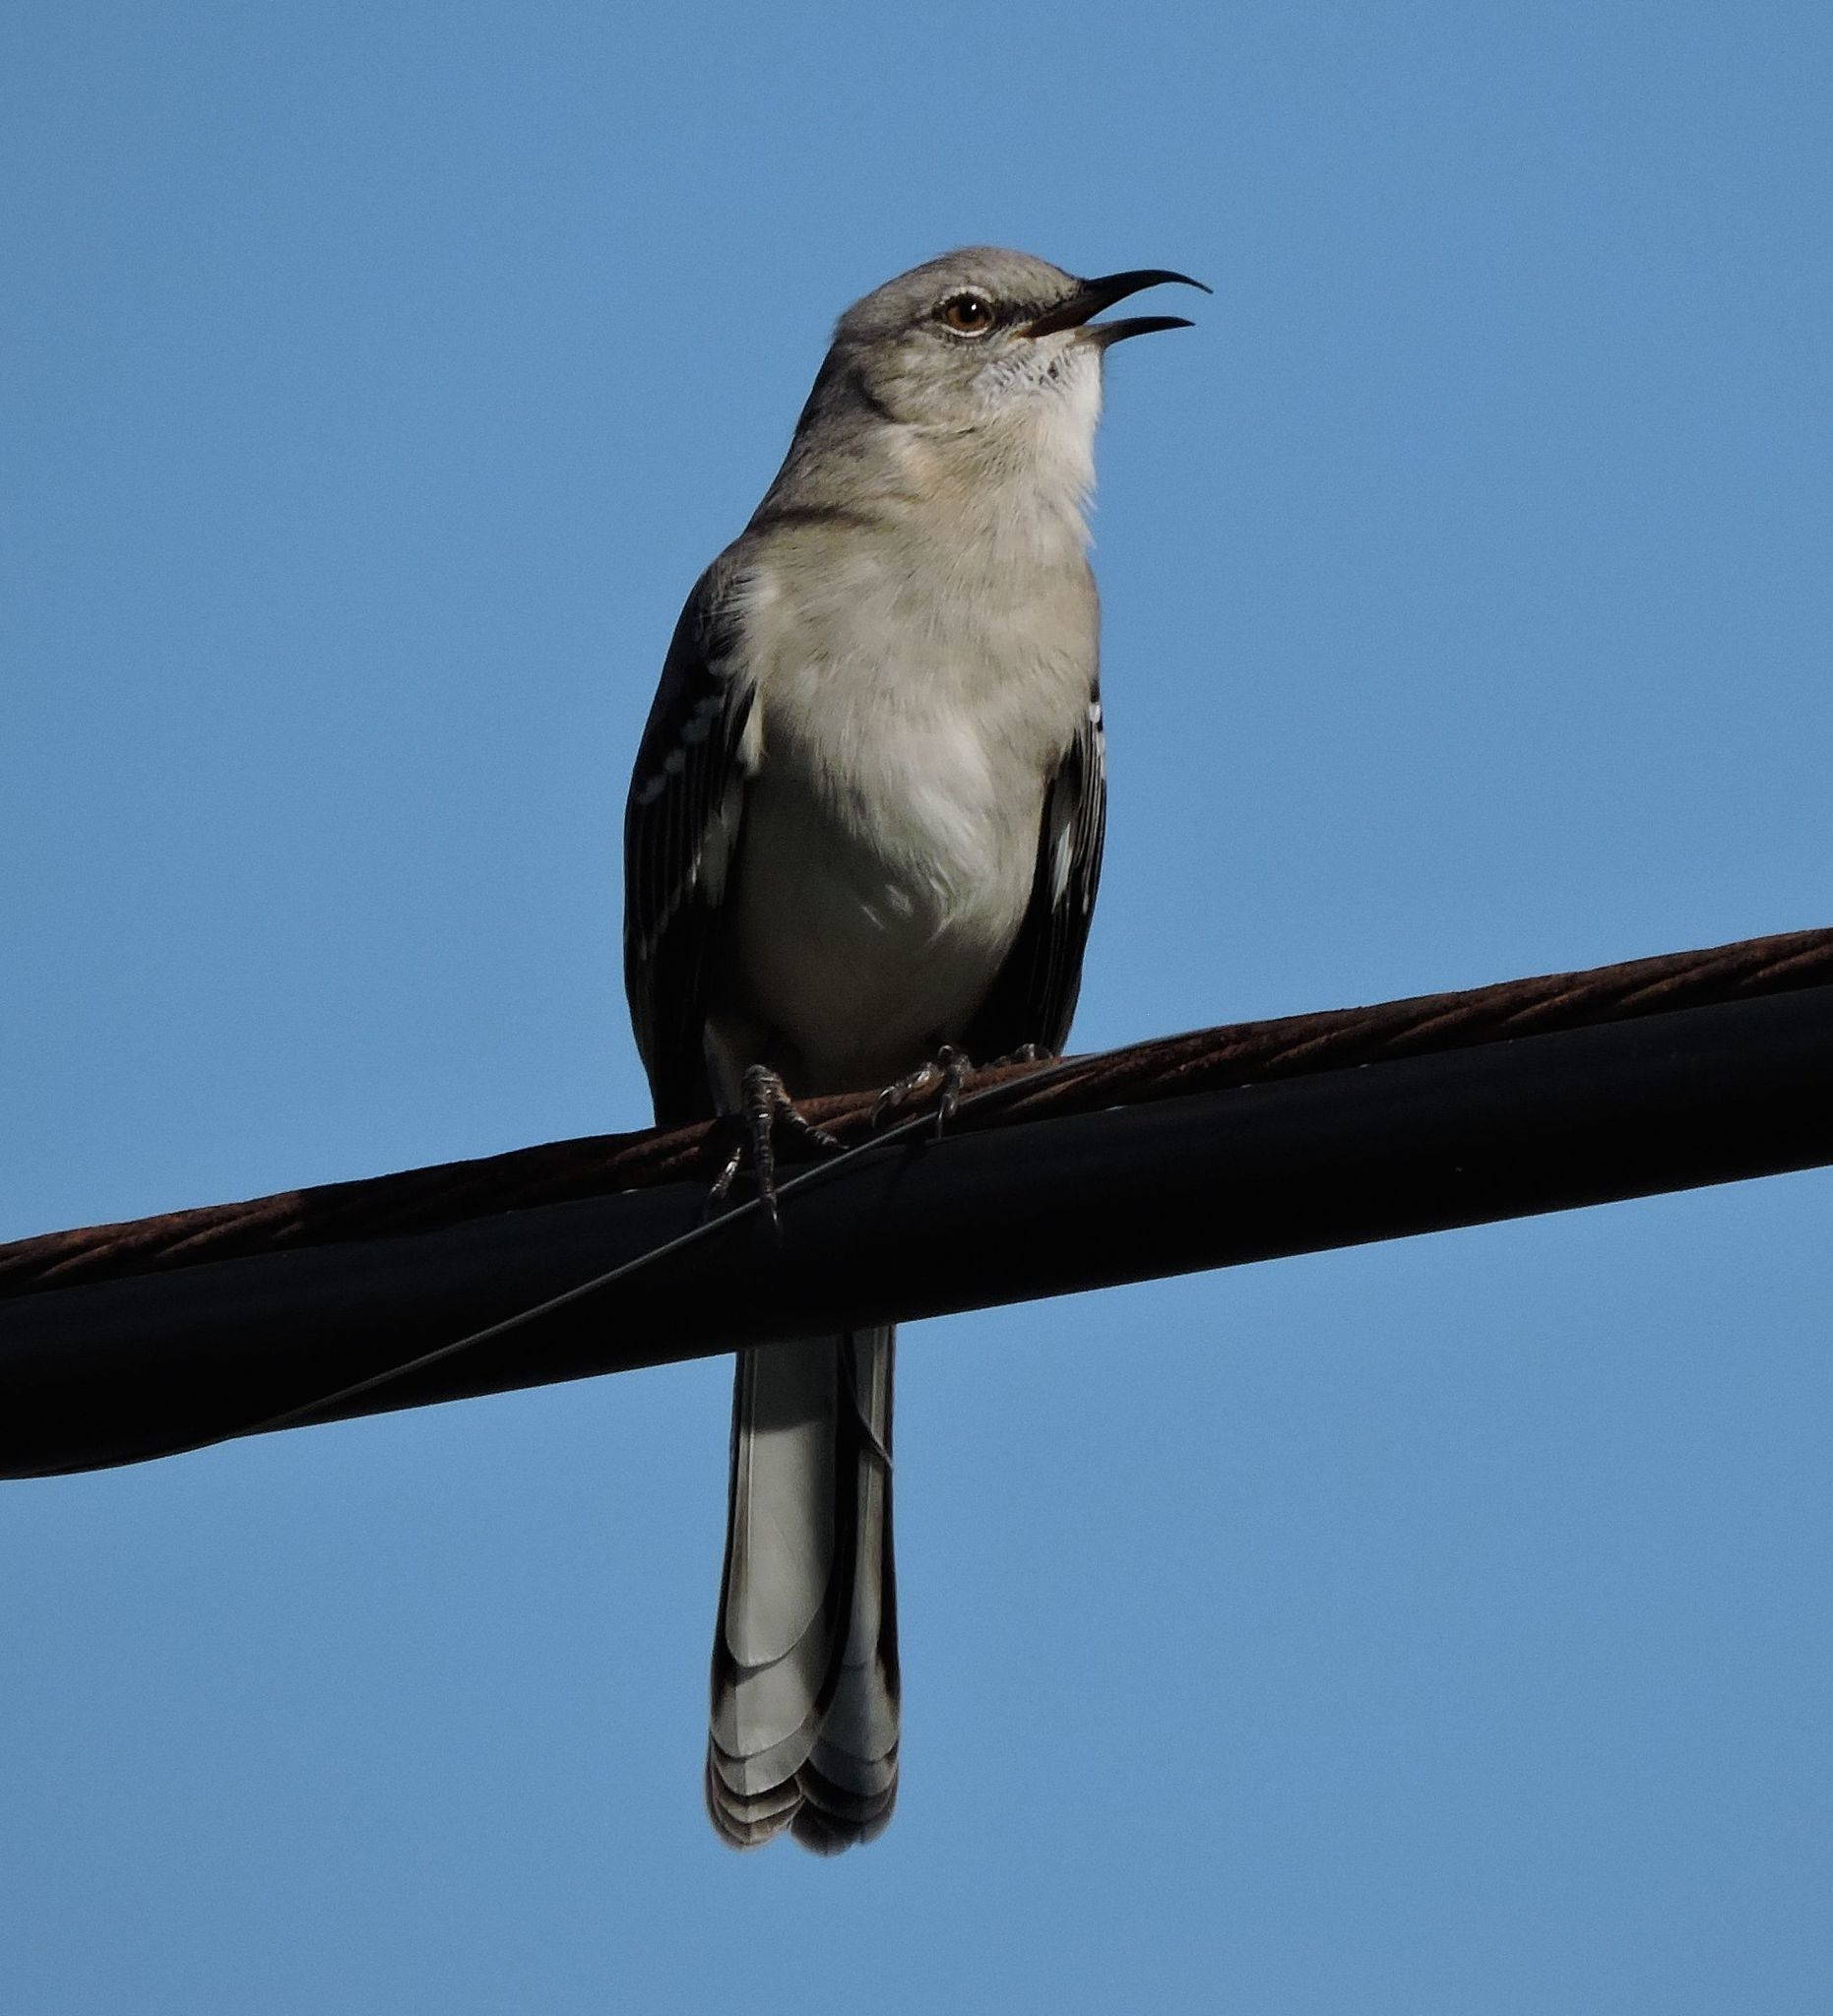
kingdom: Animalia
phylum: Chordata
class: Aves
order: Passeriformes
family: Mimidae
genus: Mimus
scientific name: Mimus polyglottos
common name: Northern mockingbird
